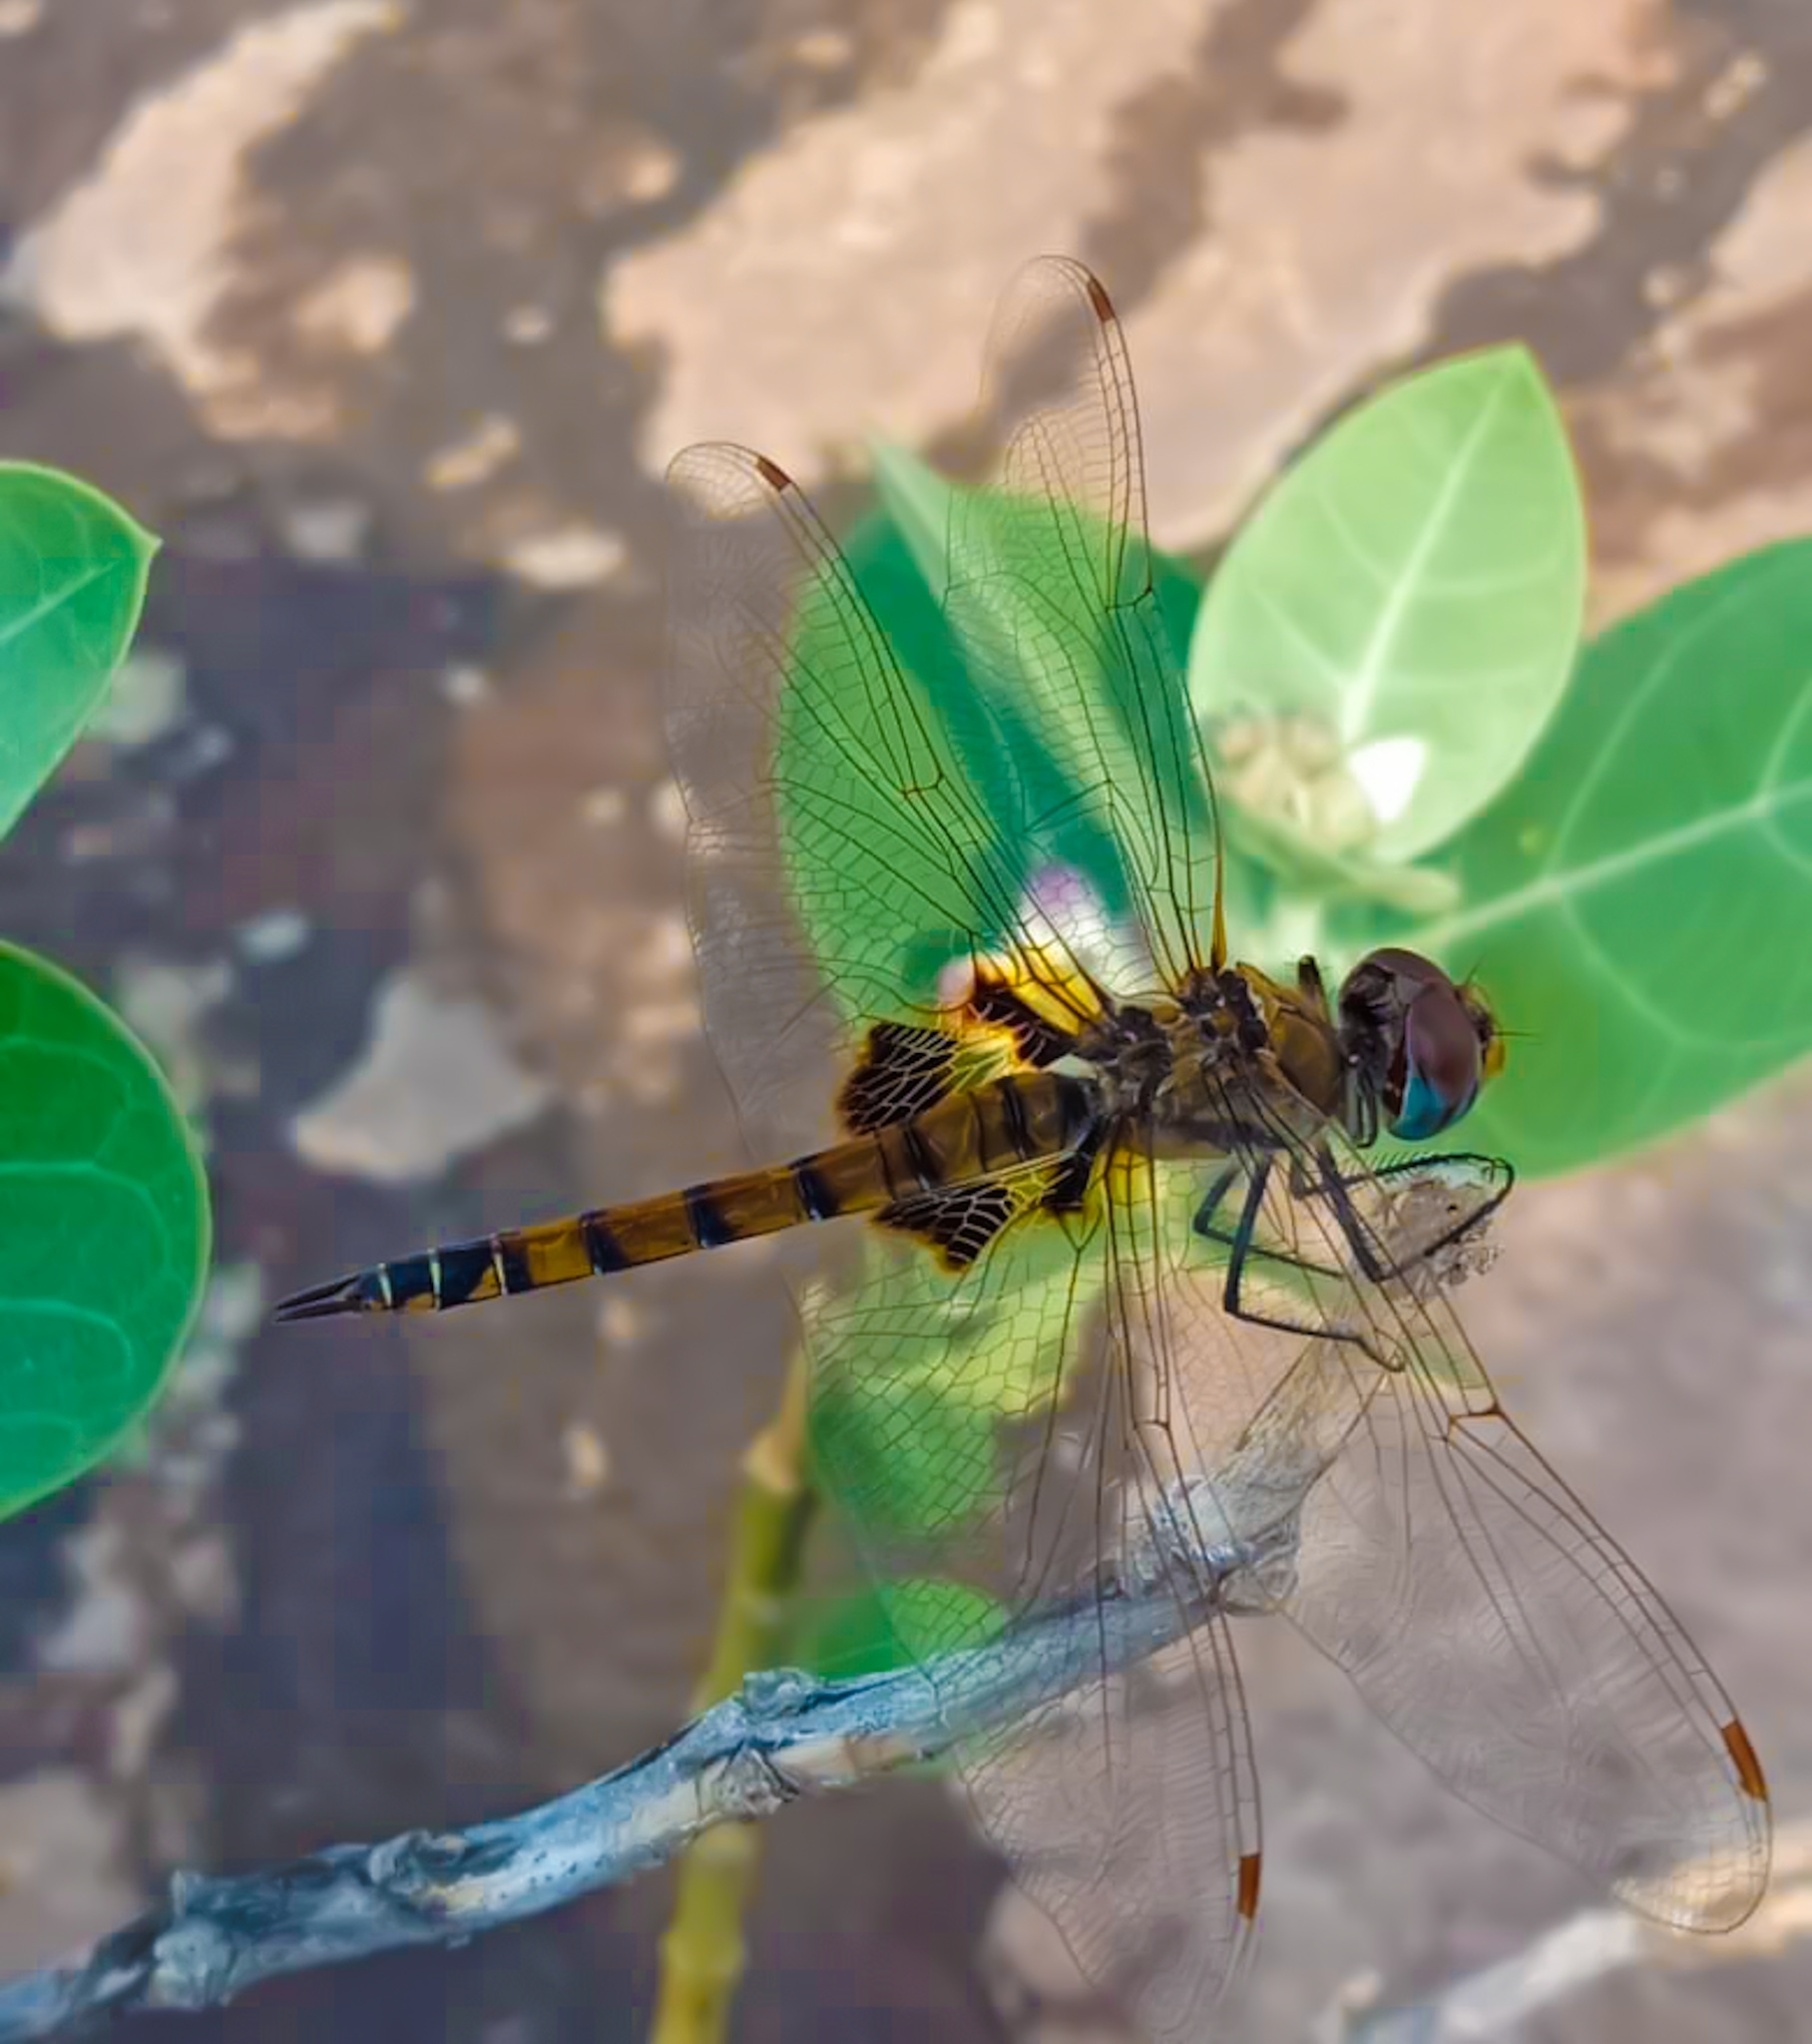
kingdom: Animalia
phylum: Arthropoda
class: Insecta
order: Odonata
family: Libellulidae
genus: Tramea
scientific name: Tramea basilaris
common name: Keyhole glider
